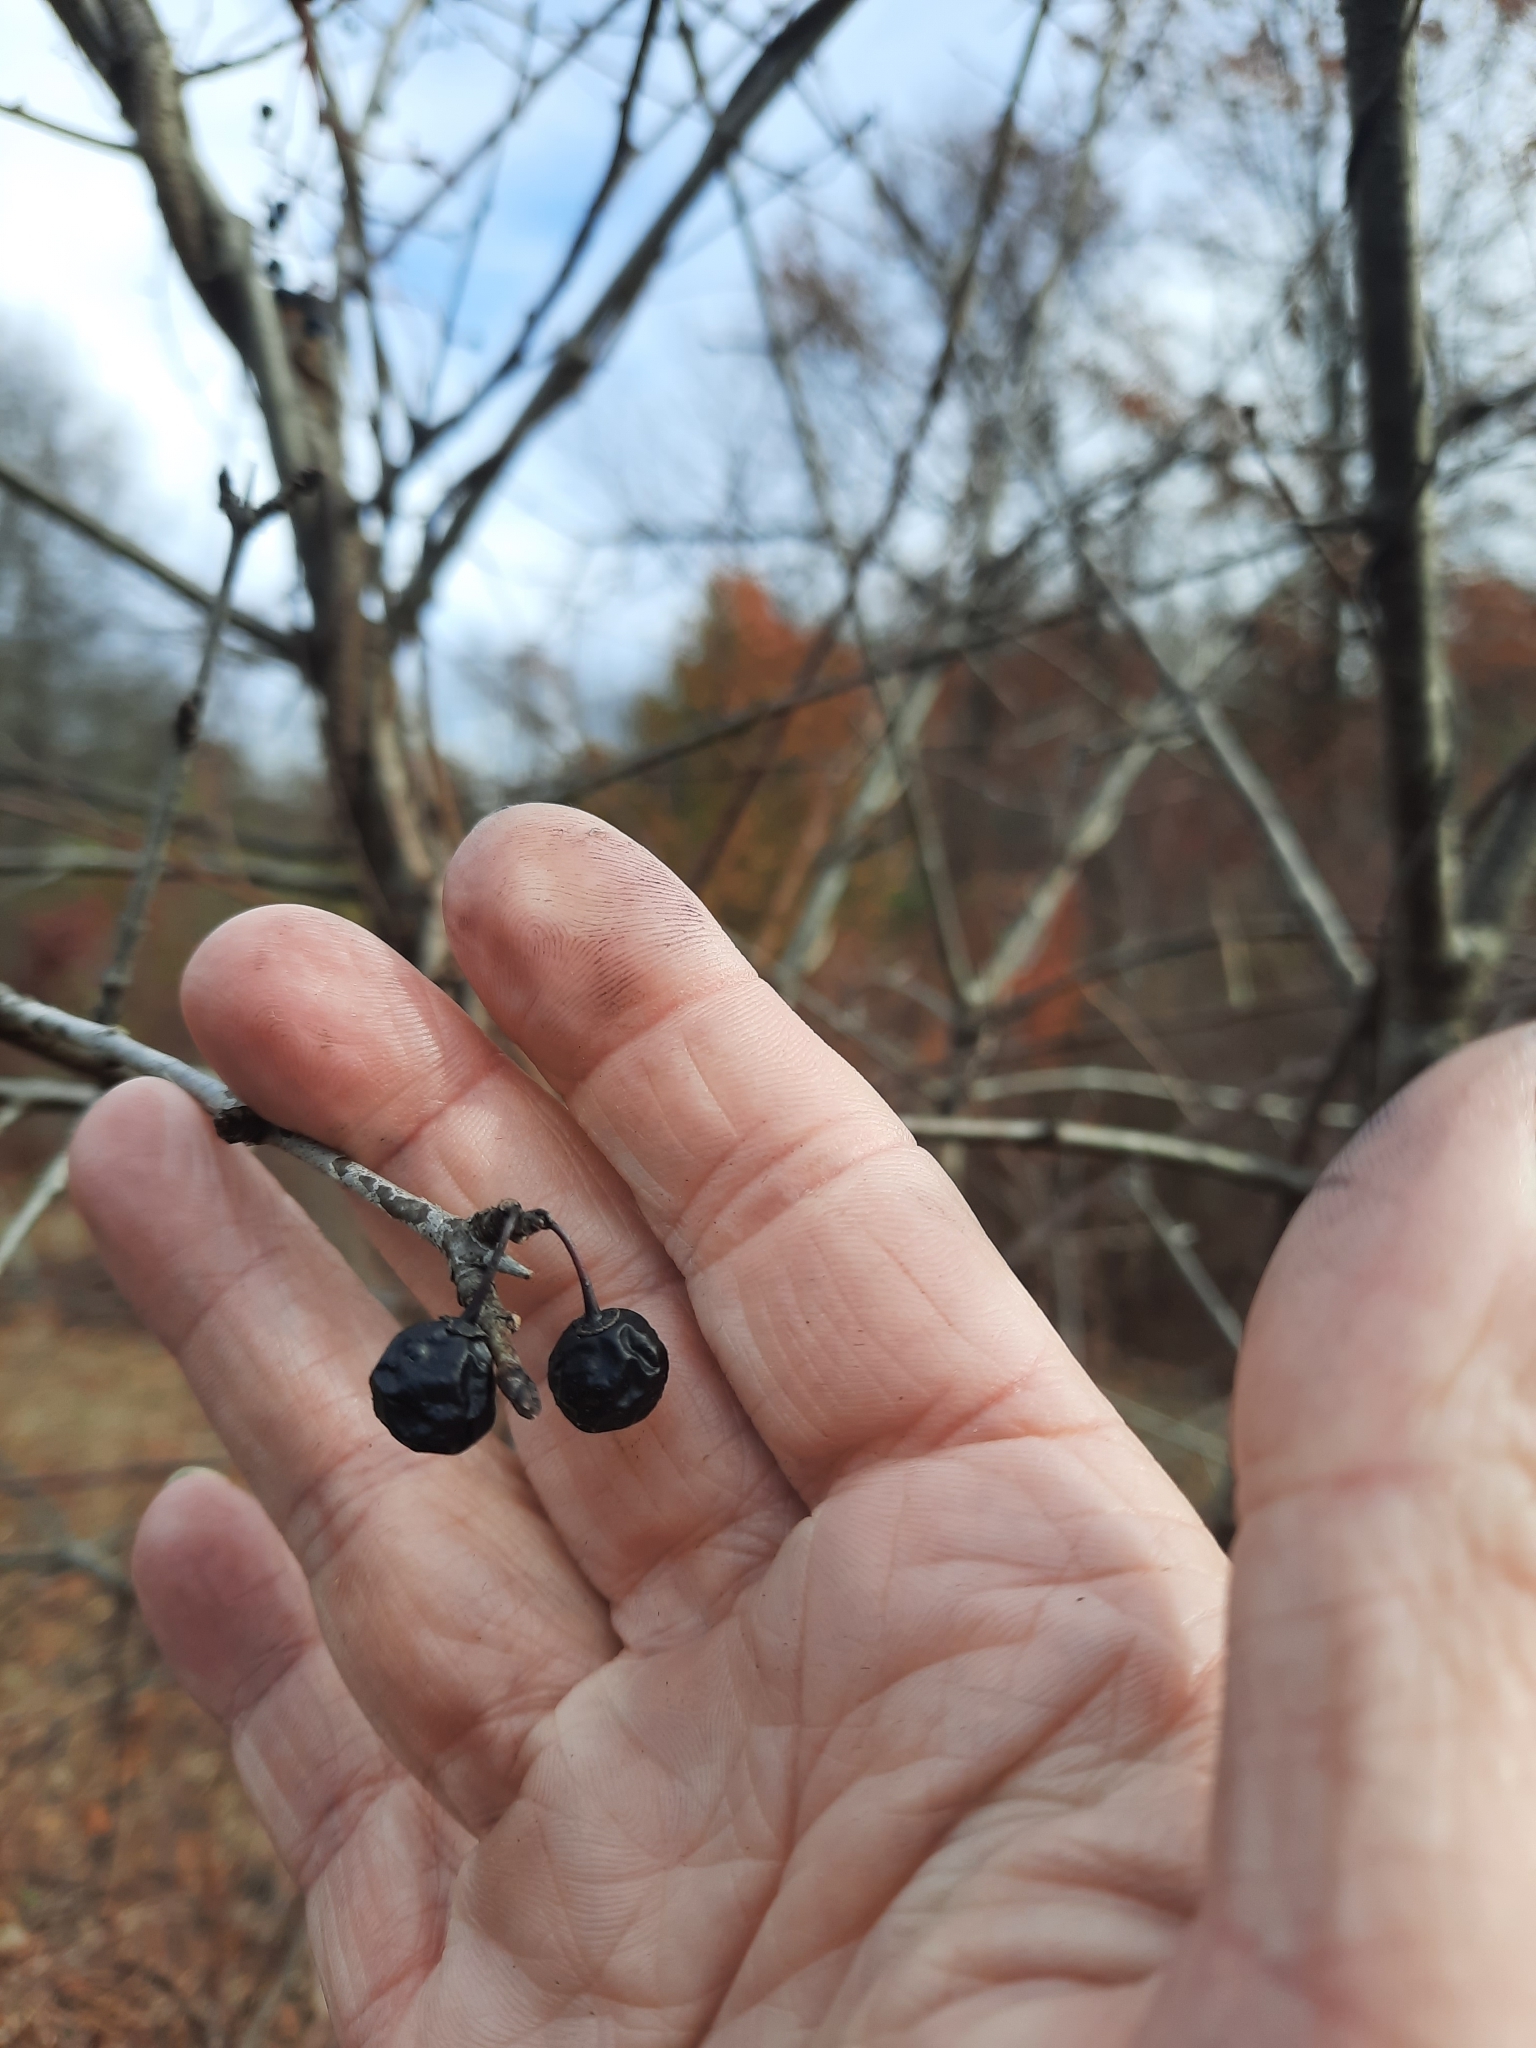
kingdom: Plantae
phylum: Tracheophyta
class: Magnoliopsida
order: Rosales
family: Rhamnaceae
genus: Rhamnus
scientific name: Rhamnus cathartica
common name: Common buckthorn
